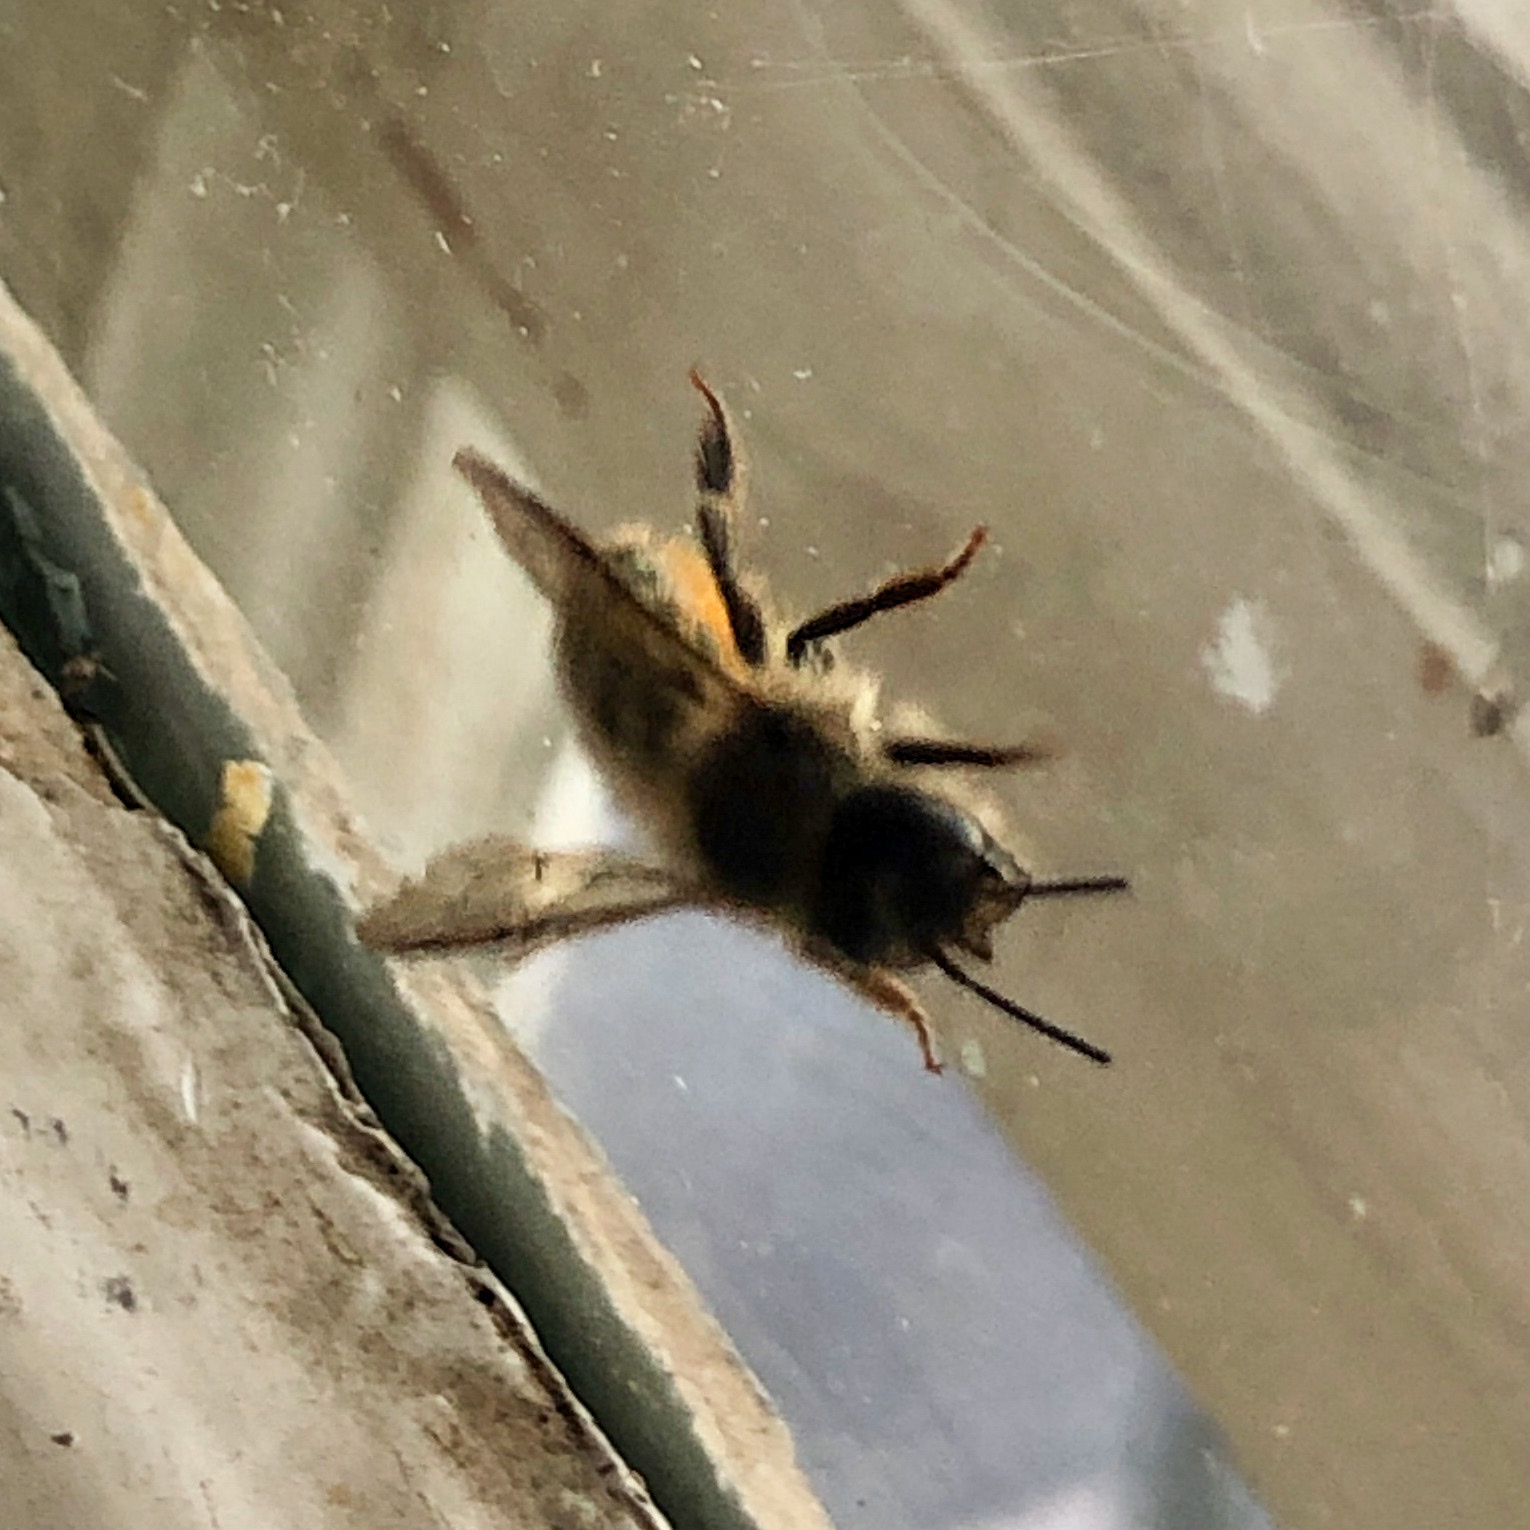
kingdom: Animalia
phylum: Arthropoda
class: Insecta
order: Hymenoptera
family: Megachilidae
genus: Osmia
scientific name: Osmia cornifrons
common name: Horn-faced bee
